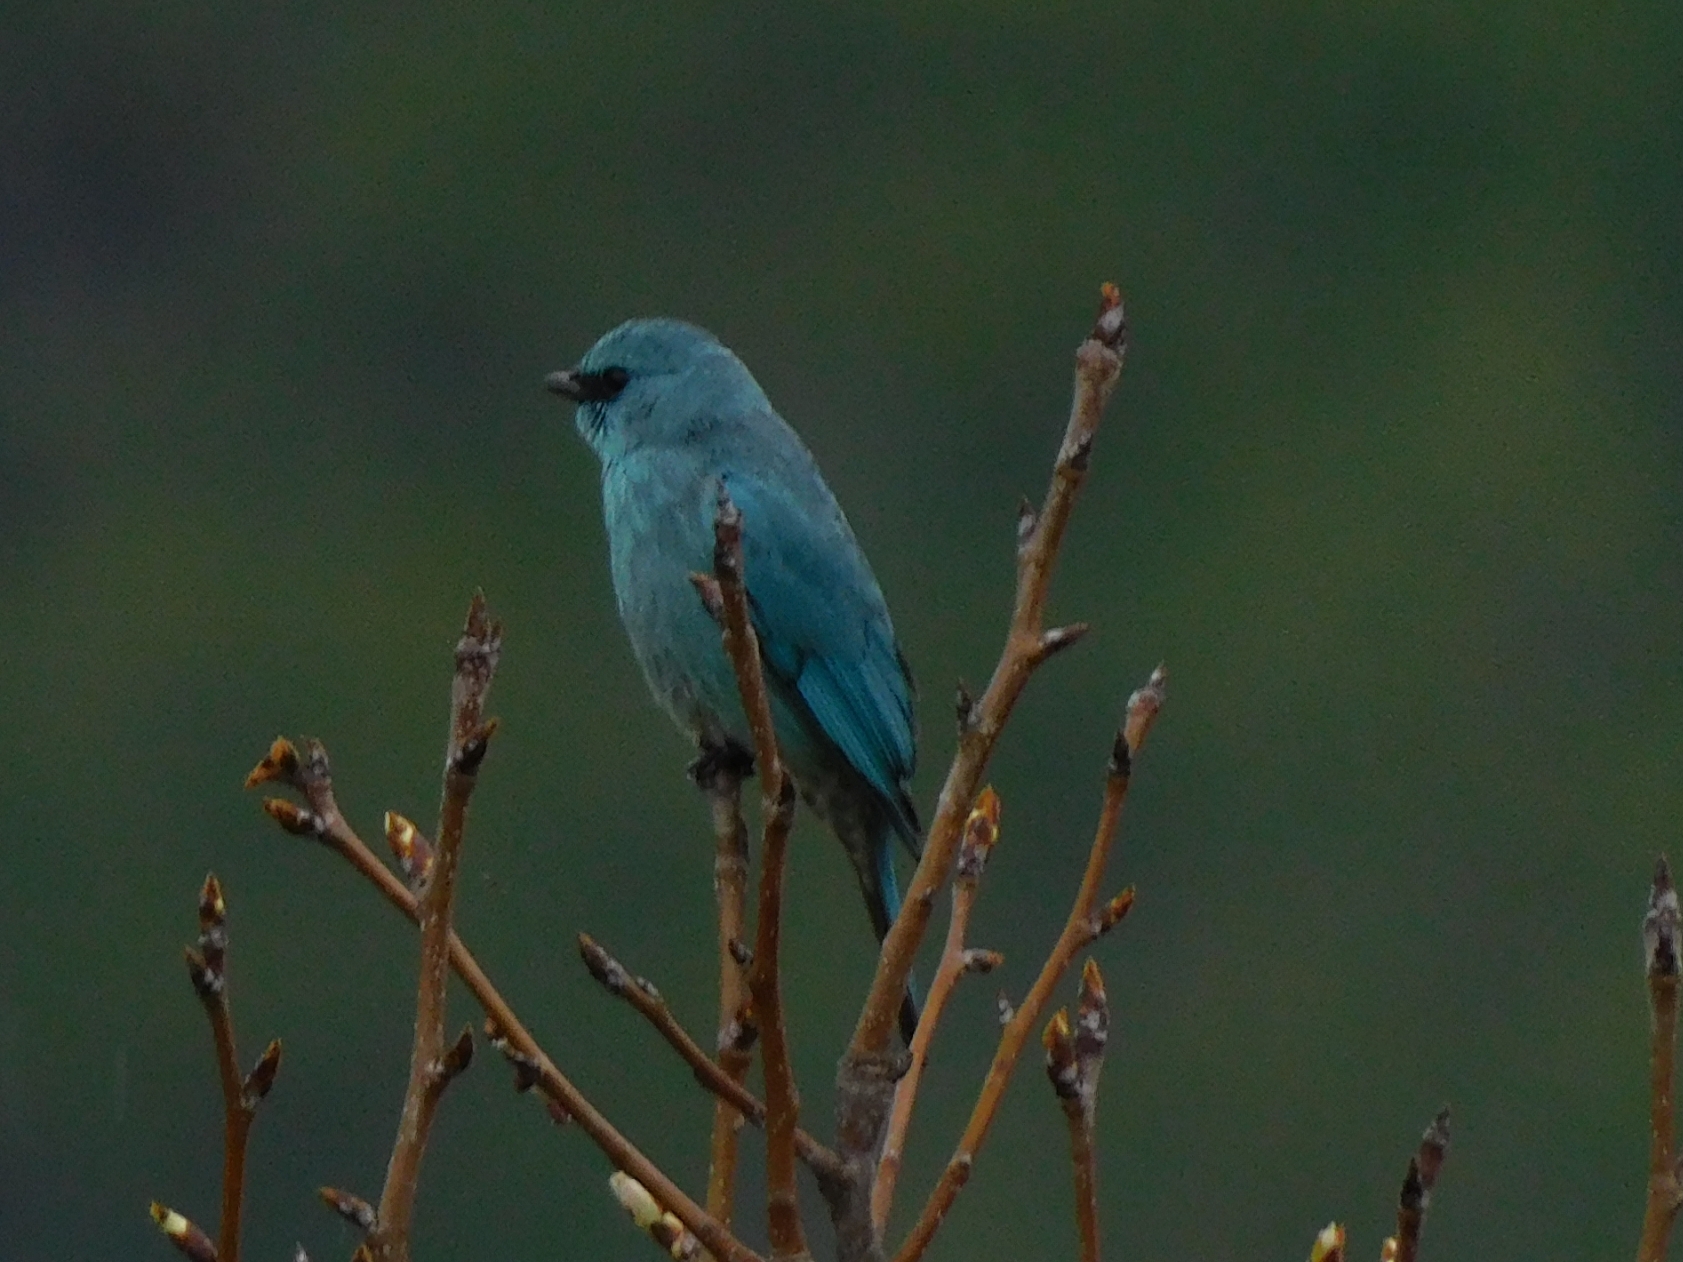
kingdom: Animalia
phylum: Chordata
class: Aves
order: Passeriformes
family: Muscicapidae
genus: Eumyias
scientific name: Eumyias thalassinus
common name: Verditer flycatcher
